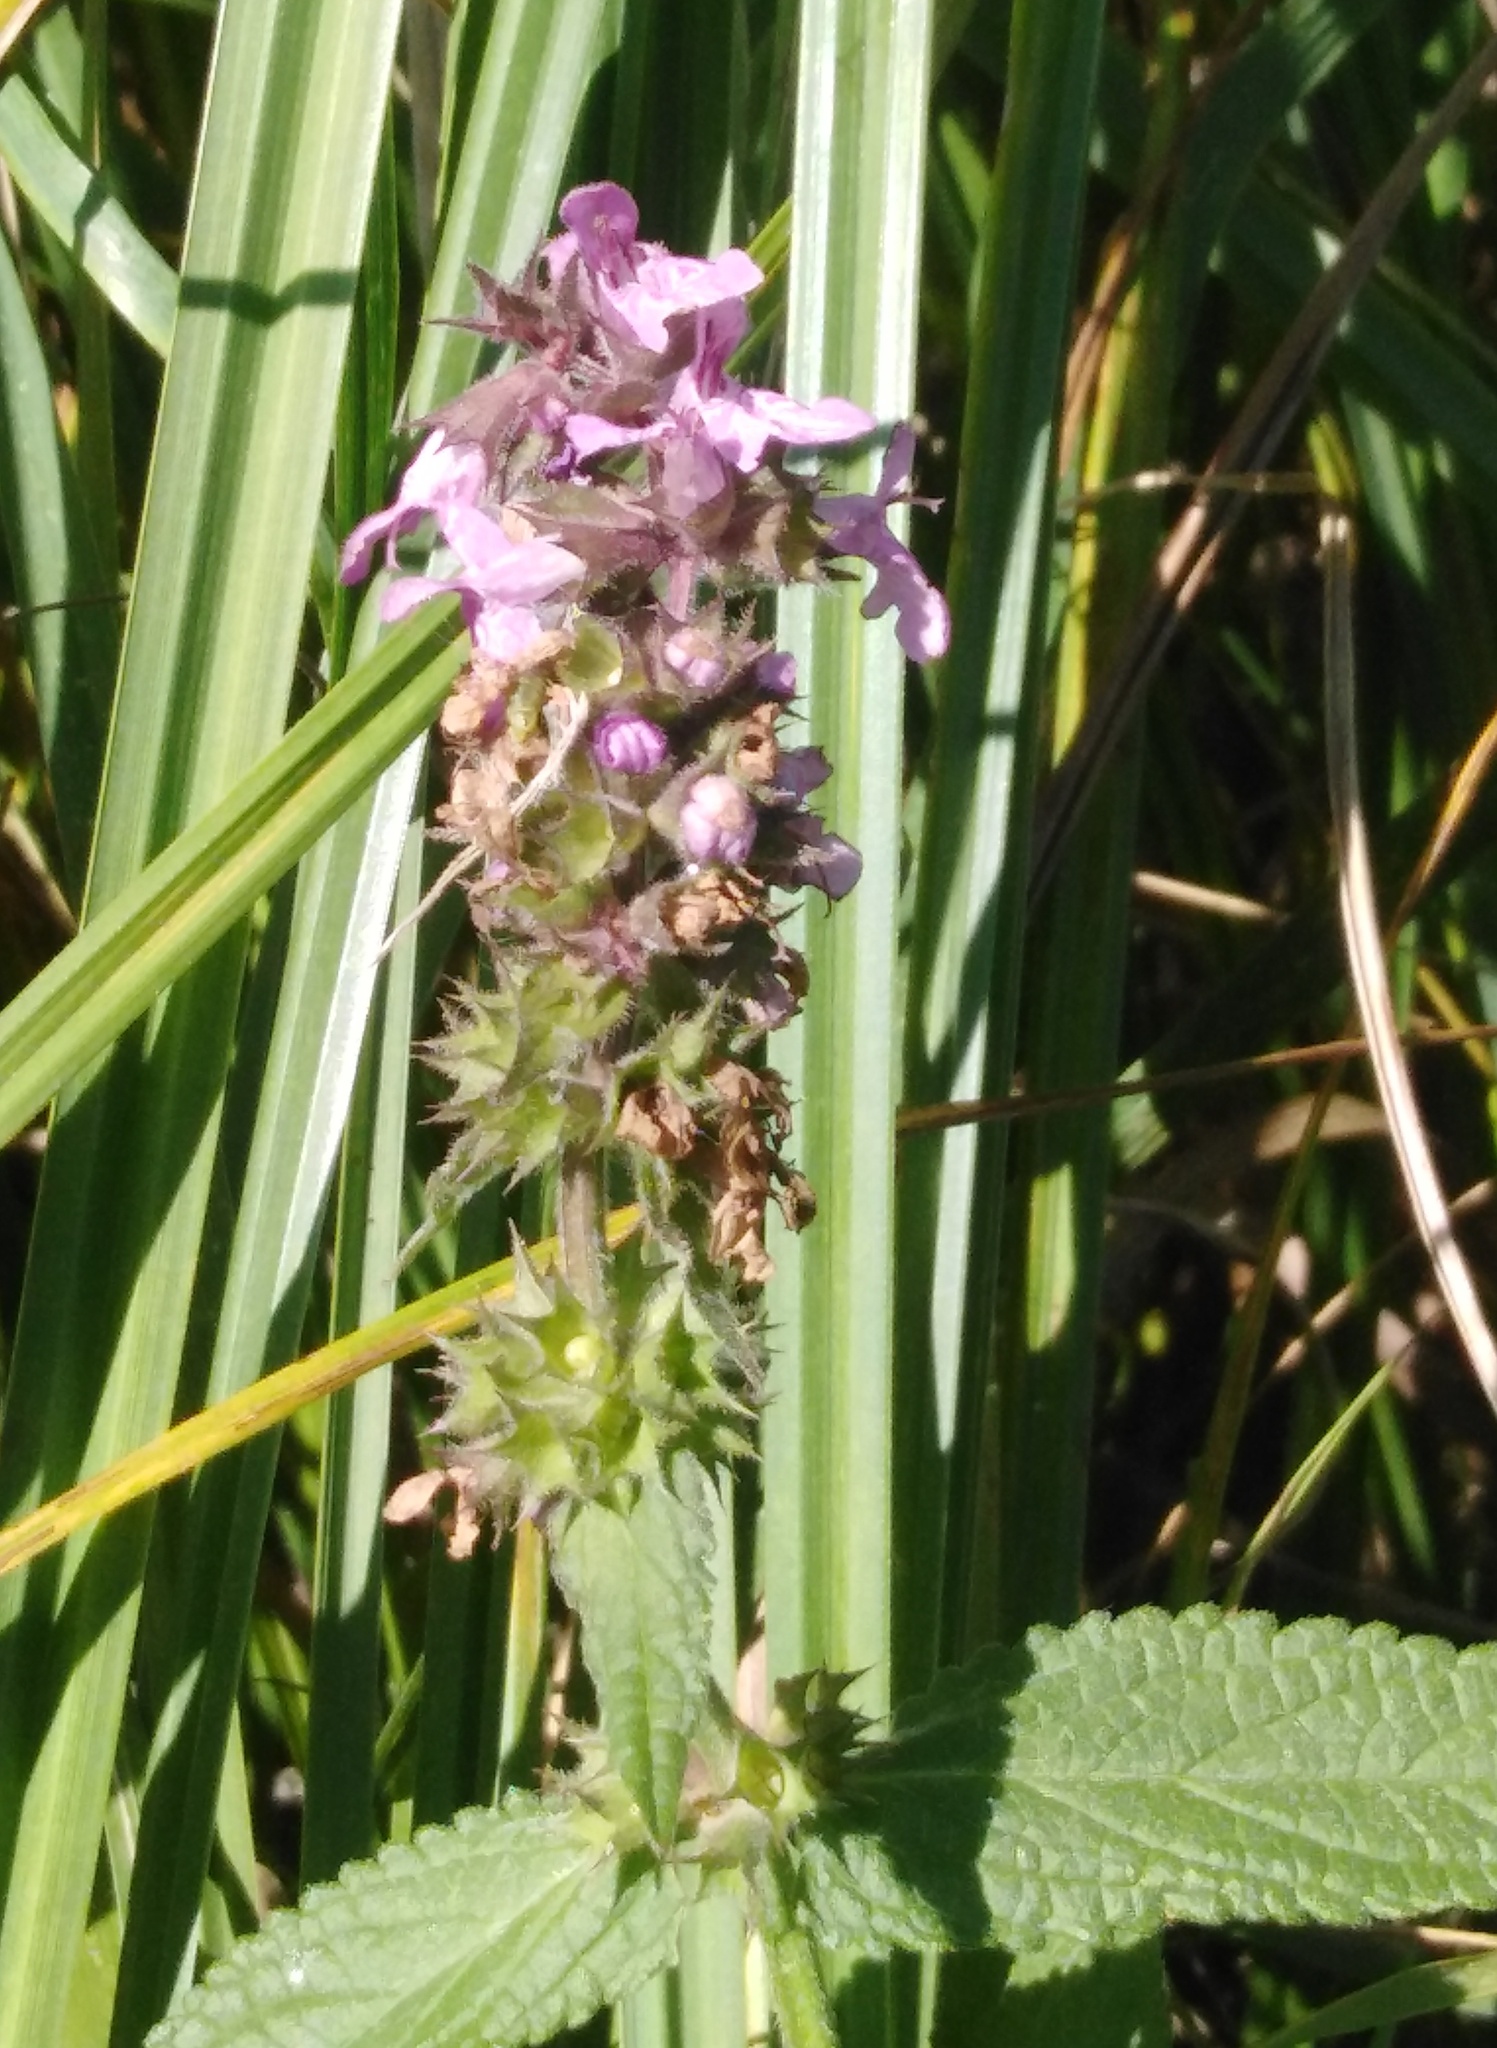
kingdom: Plantae
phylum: Tracheophyta
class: Magnoliopsida
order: Lamiales
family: Lamiaceae
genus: Stachys
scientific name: Stachys palustris
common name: Marsh woundwort
